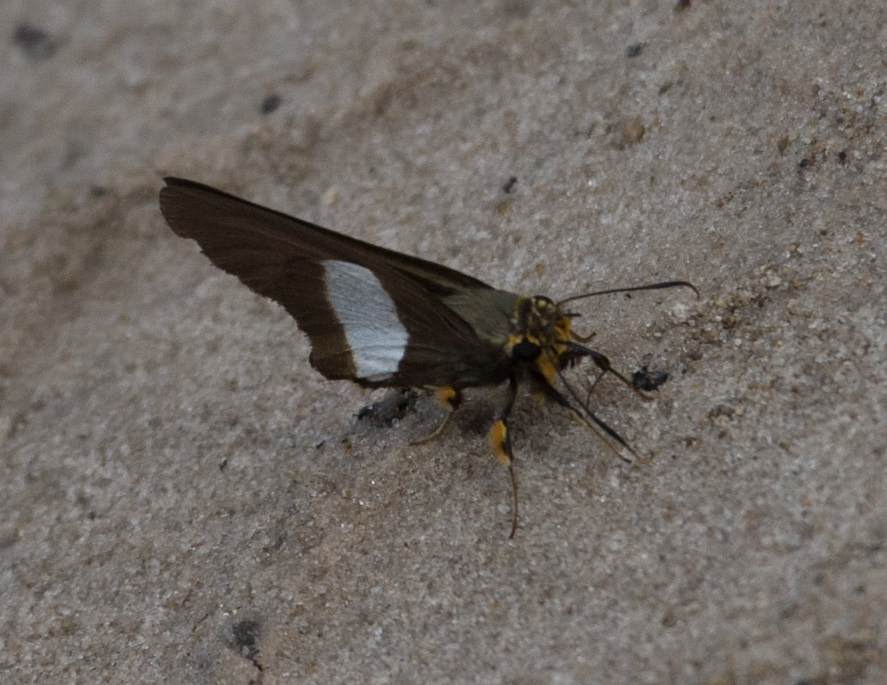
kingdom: Animalia
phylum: Arthropoda
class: Insecta
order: Lepidoptera
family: Hesperiidae
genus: Coeliades
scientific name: Coeliades forestan
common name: Striped policeman
